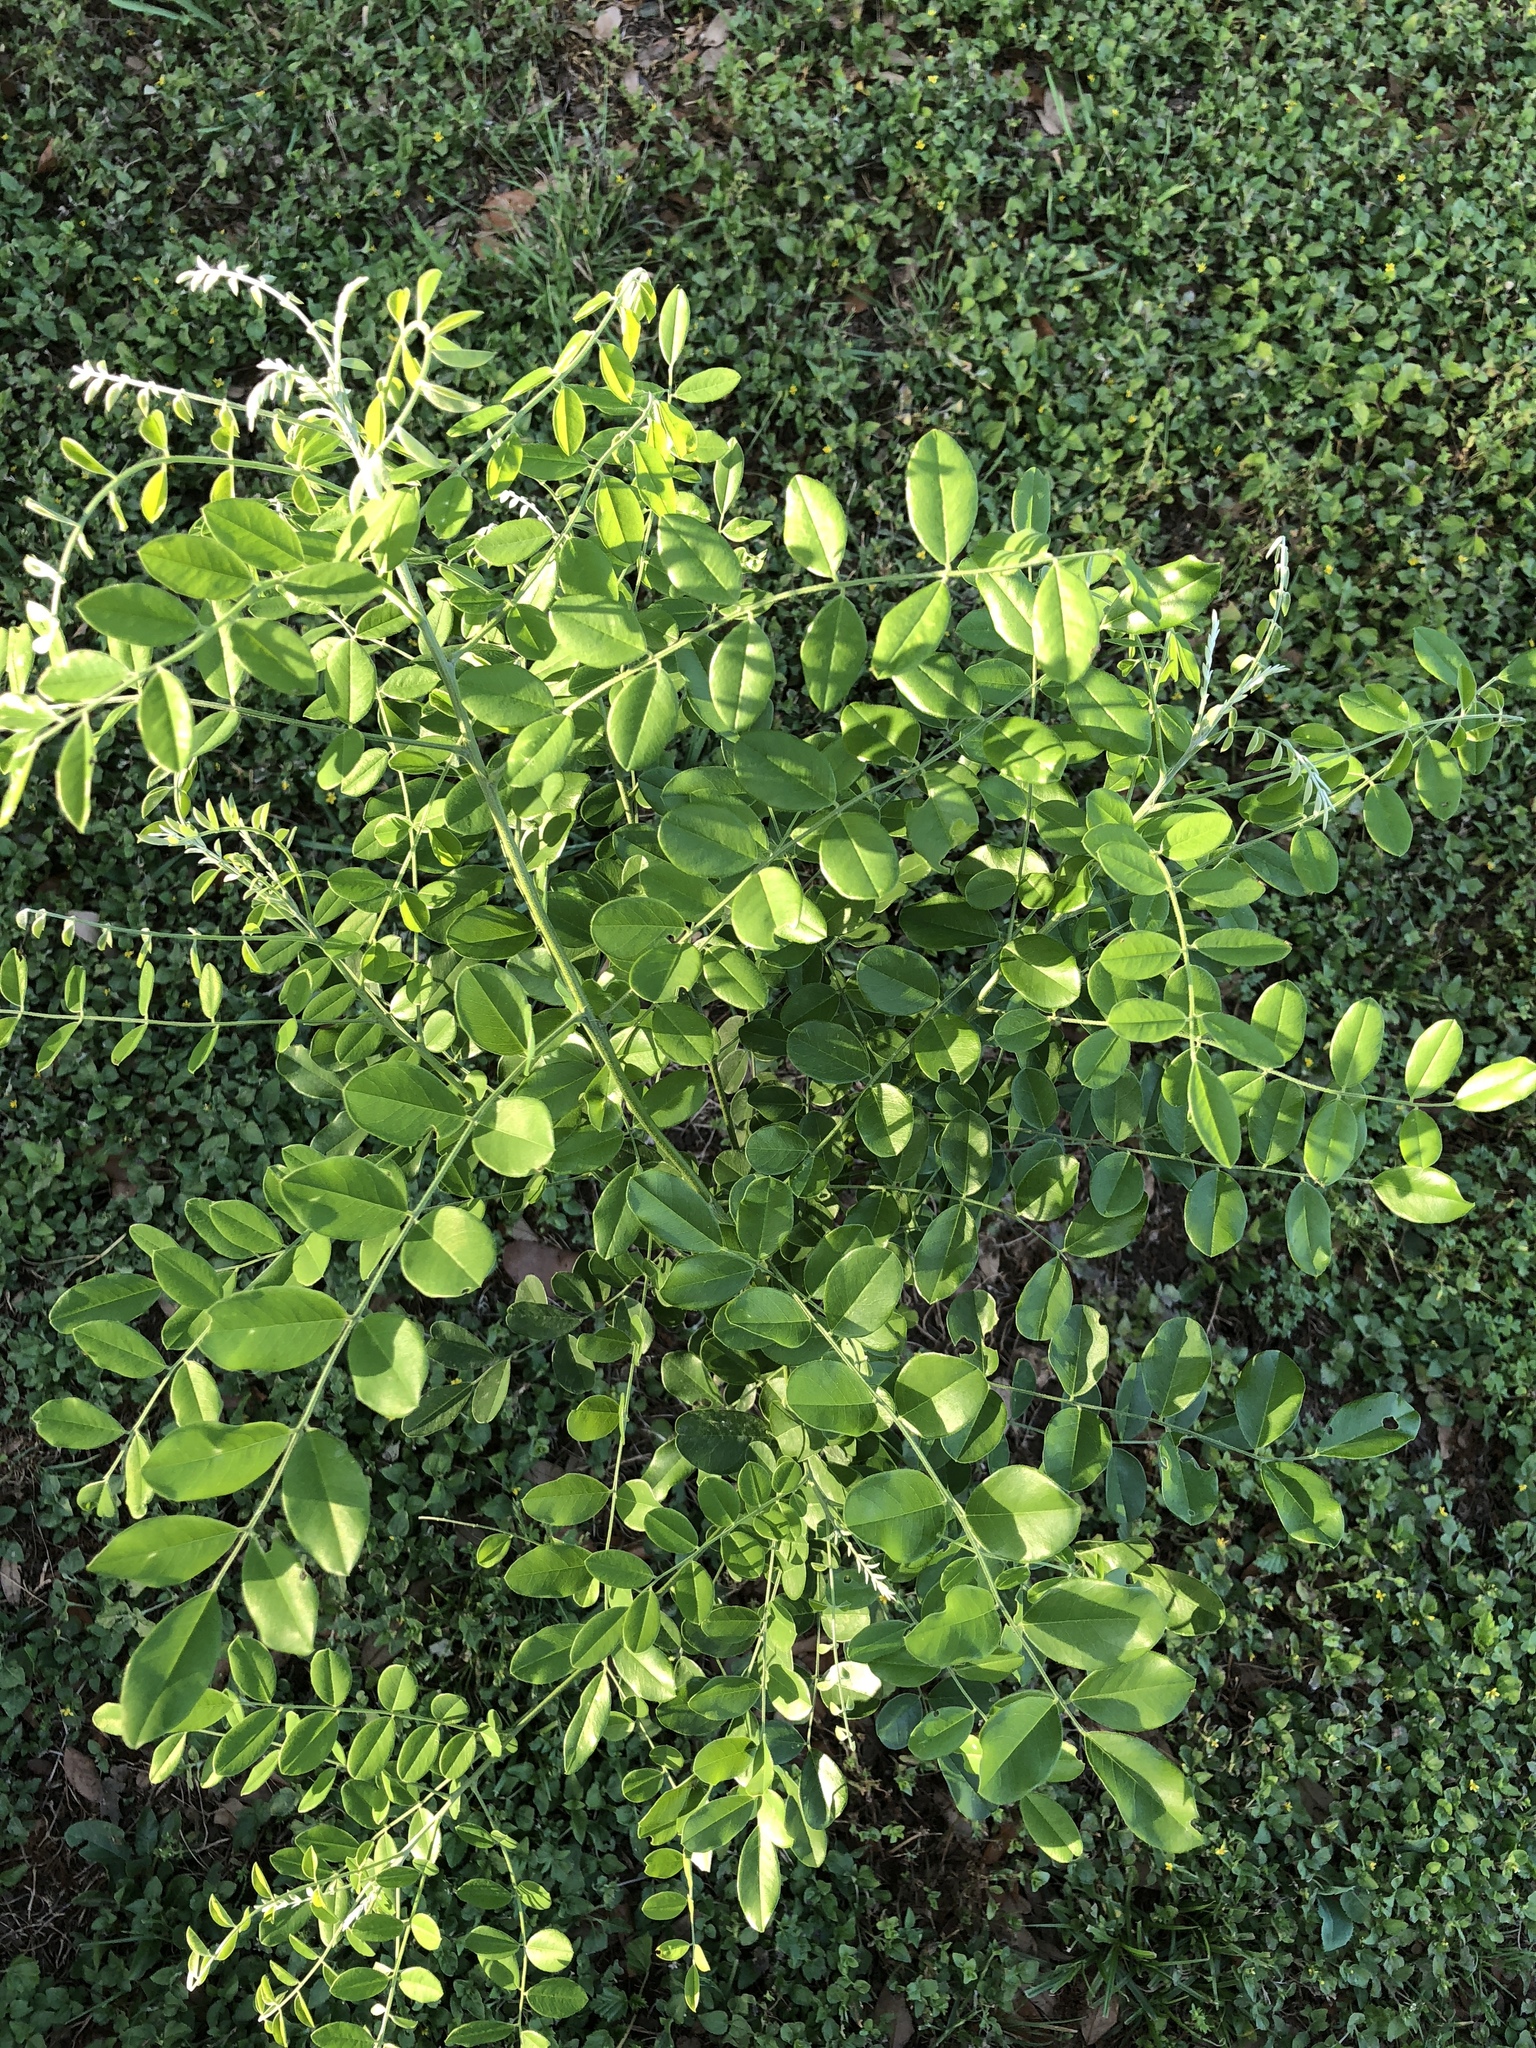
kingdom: Plantae
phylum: Tracheophyta
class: Magnoliopsida
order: Fabales
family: Fabaceae
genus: Styphnolobium
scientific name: Styphnolobium affine
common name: Texas sophora
